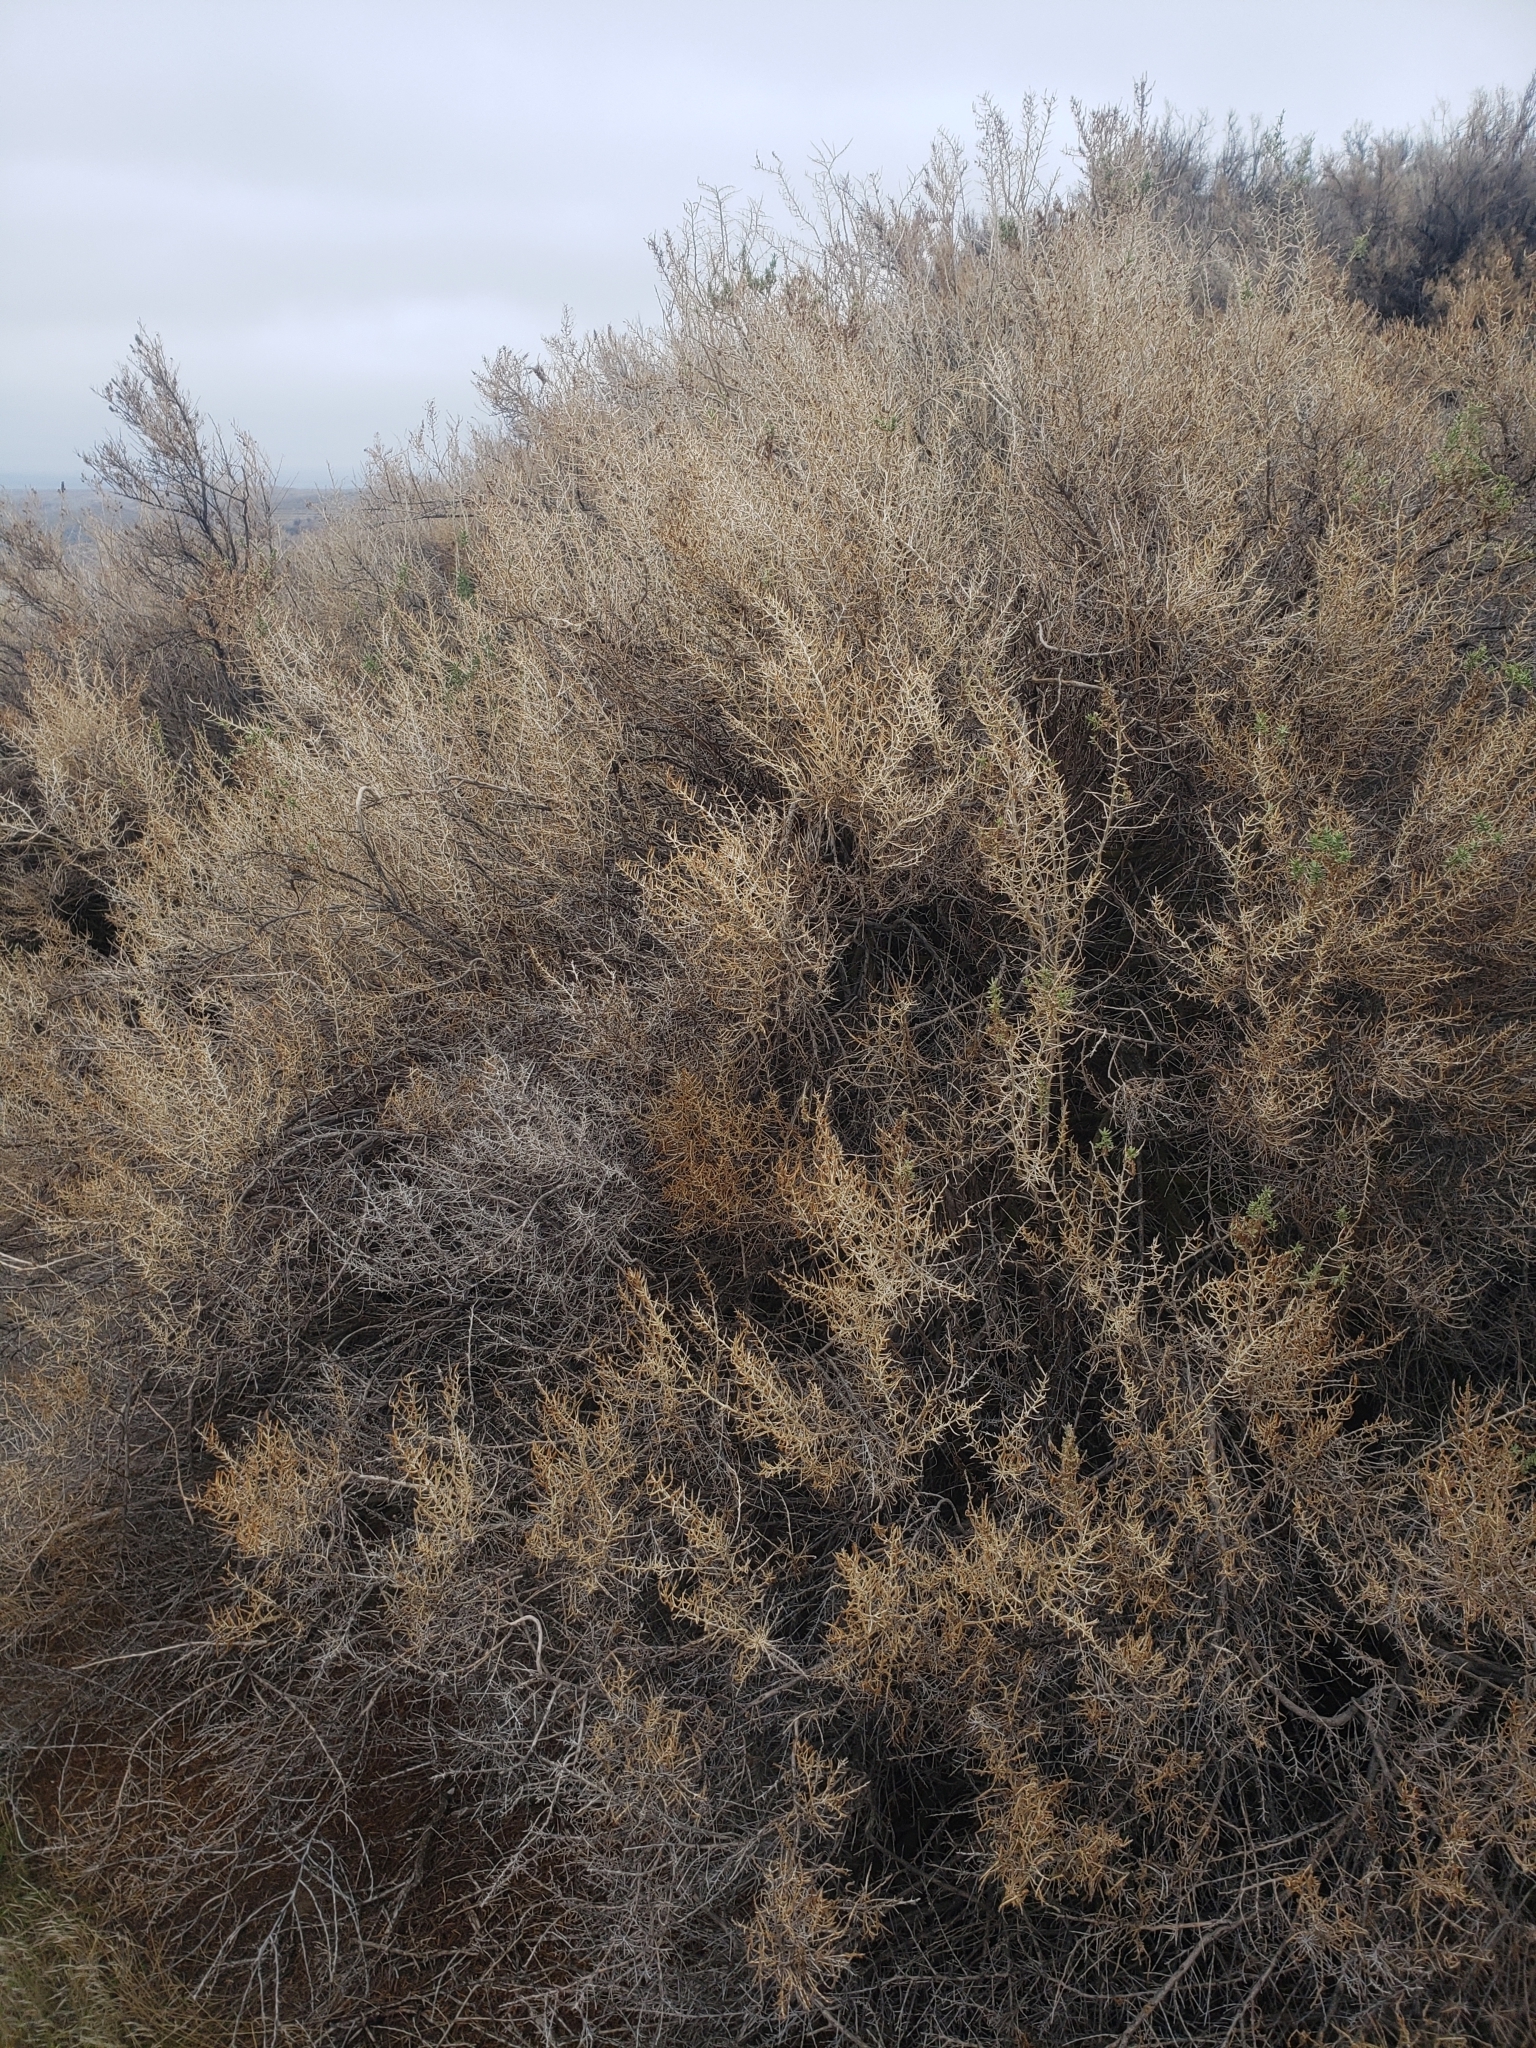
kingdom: Plantae
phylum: Tracheophyta
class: Magnoliopsida
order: Caryophyllales
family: Sarcobataceae
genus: Sarcobatus
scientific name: Sarcobatus vermiculatus
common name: Greasewood
